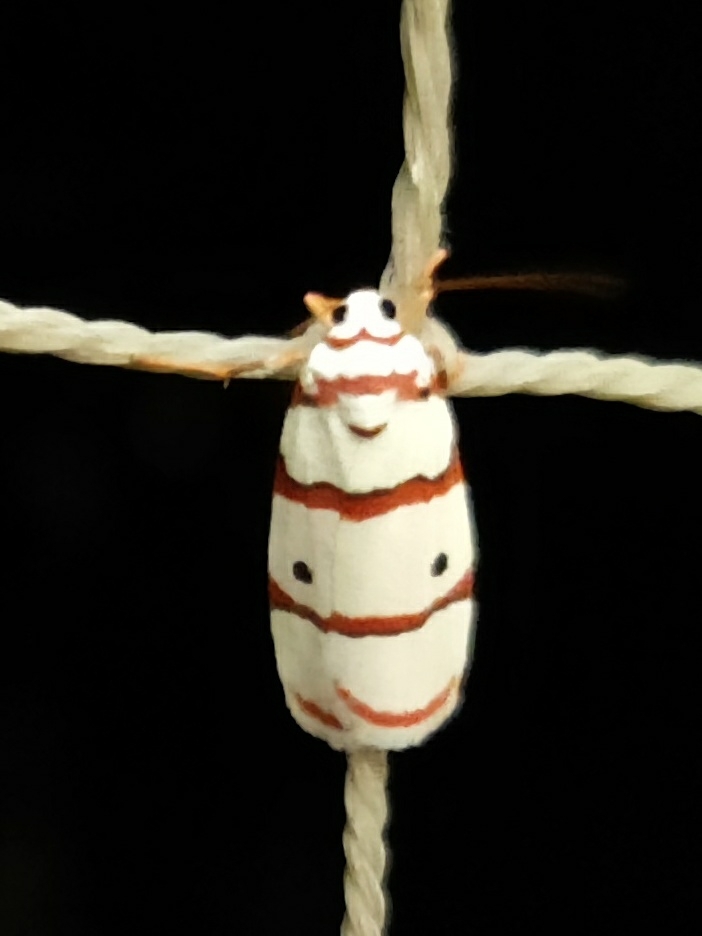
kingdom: Animalia
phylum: Arthropoda
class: Insecta
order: Lepidoptera
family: Erebidae
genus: Cyana
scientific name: Cyana peregrina
